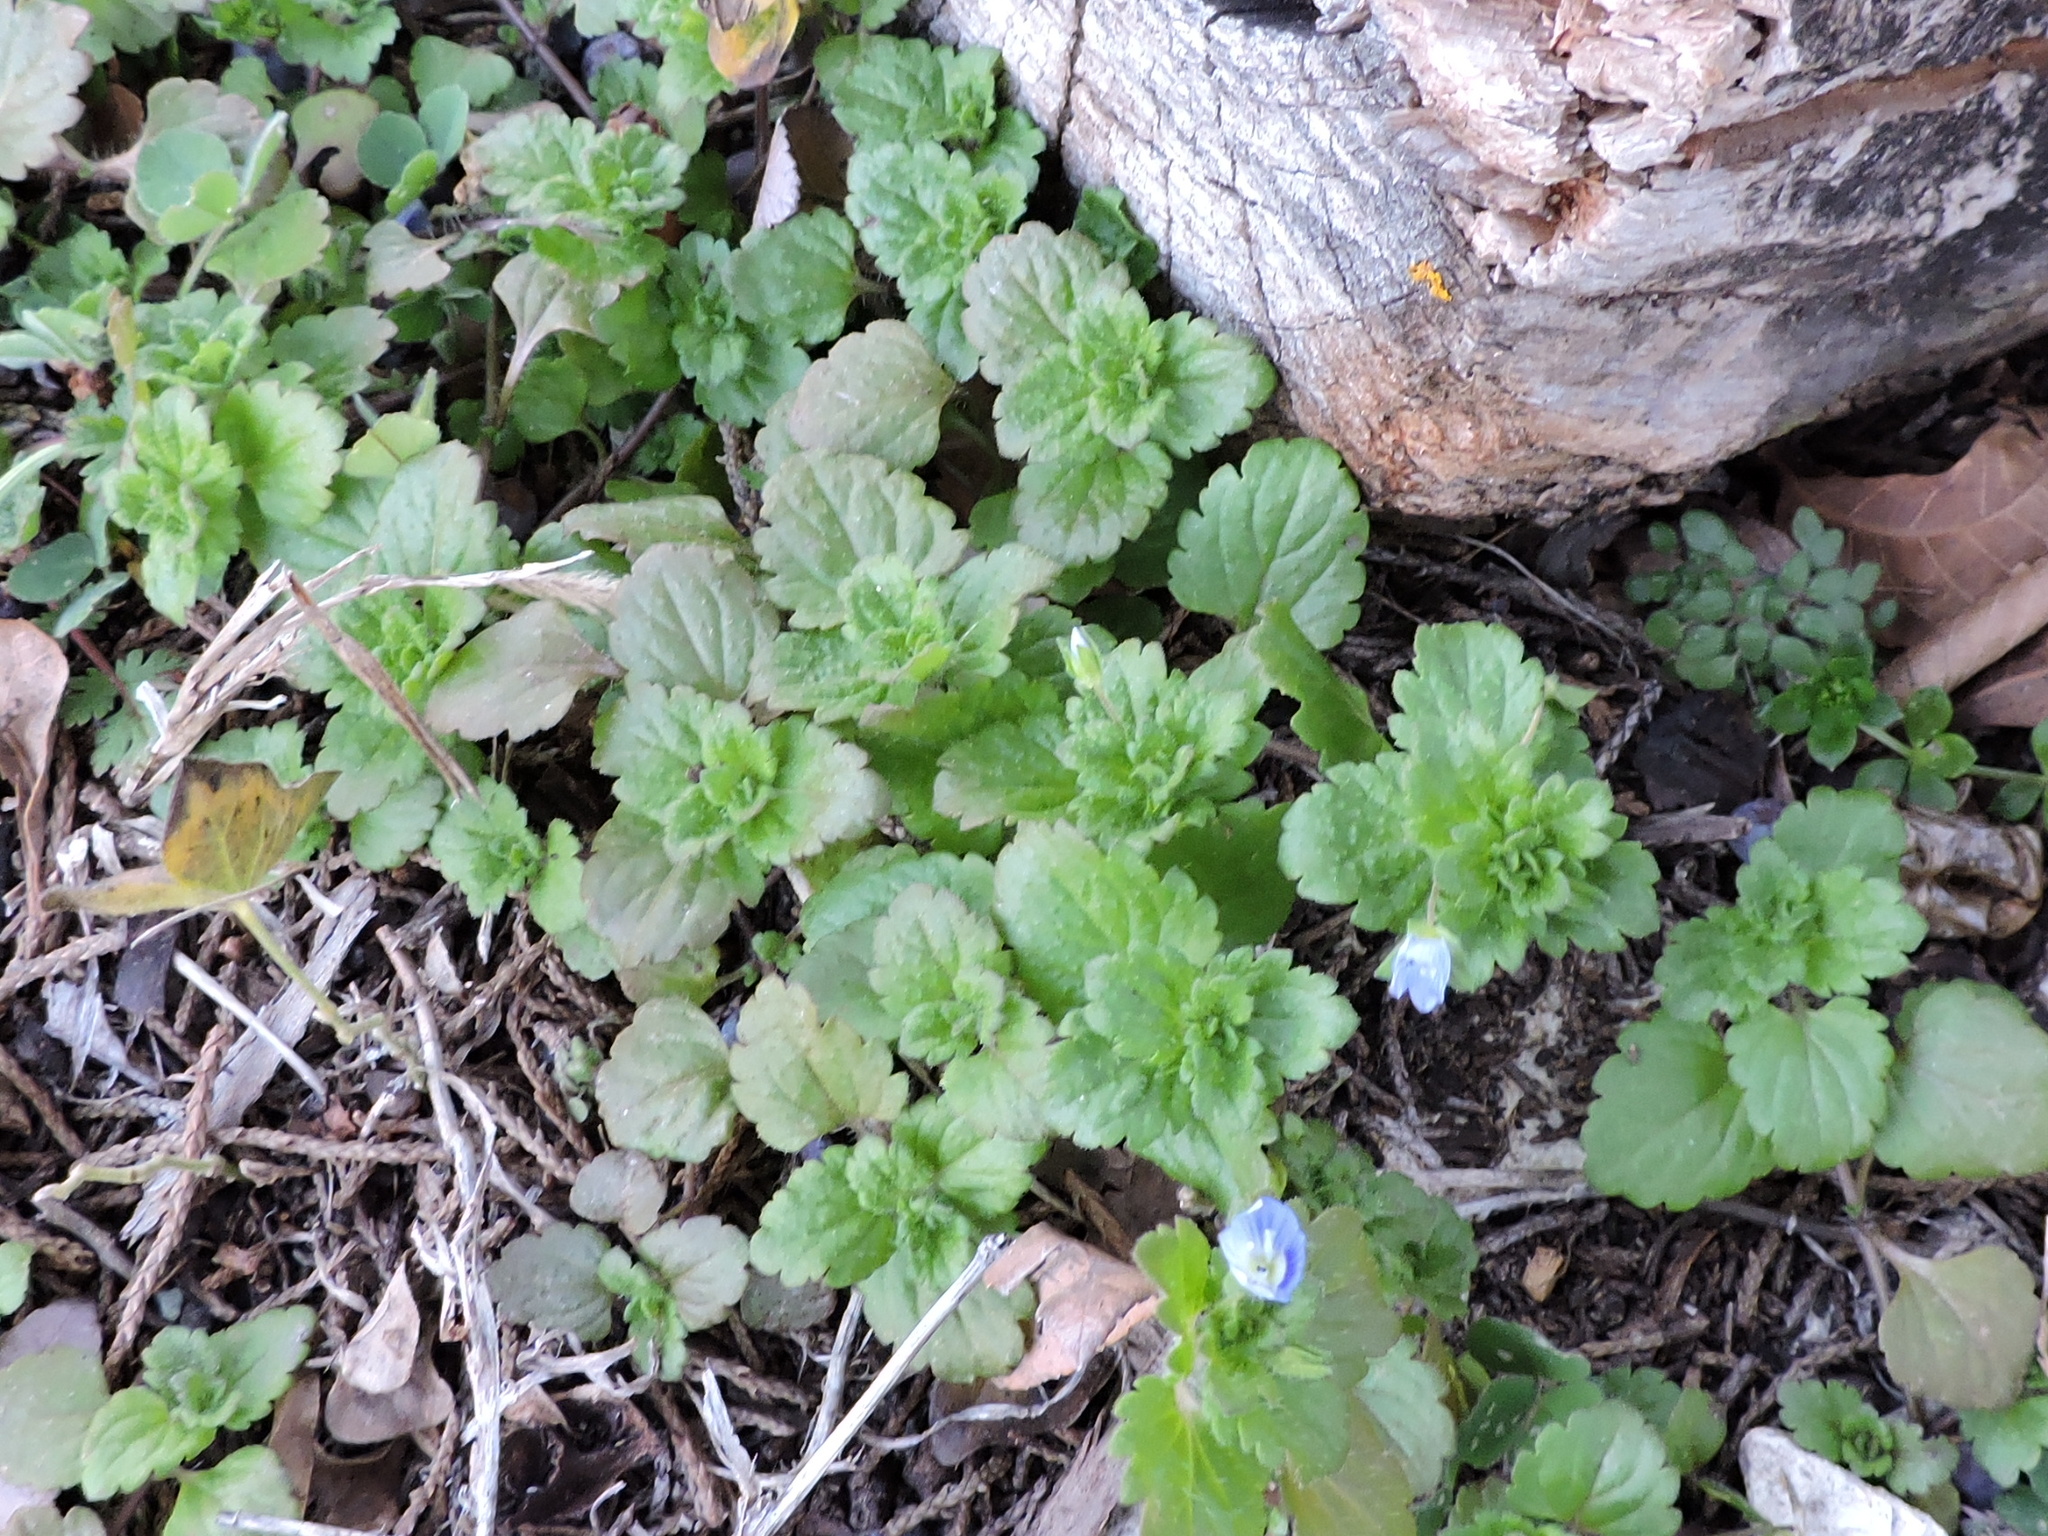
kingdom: Plantae
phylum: Tracheophyta
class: Magnoliopsida
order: Lamiales
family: Plantaginaceae
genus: Veronica
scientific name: Veronica persica
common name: Common field-speedwell
